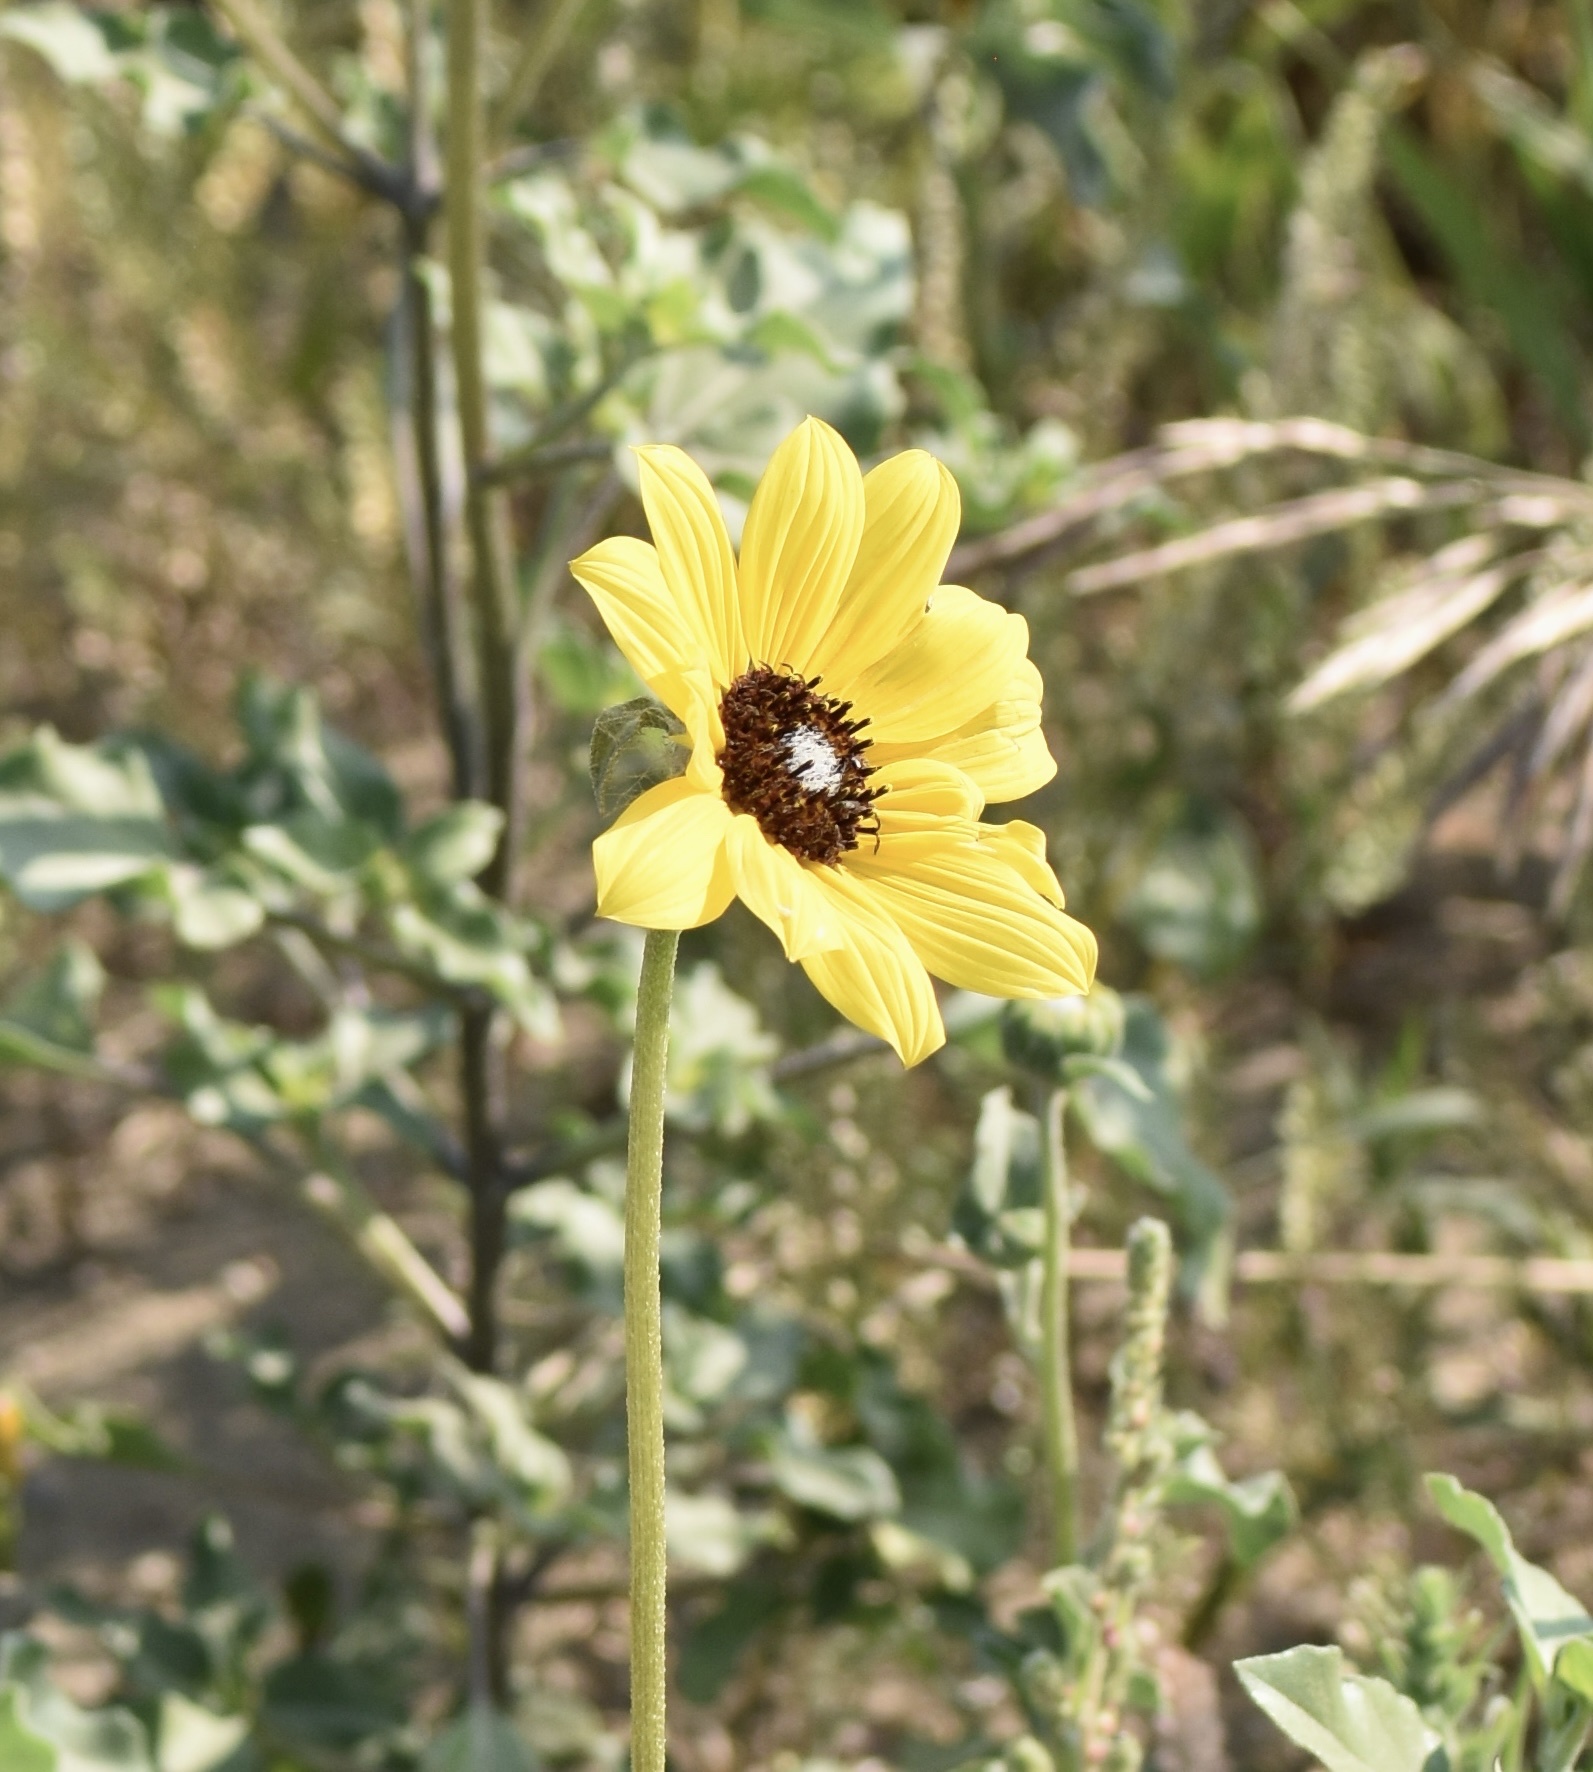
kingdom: Plantae
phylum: Tracheophyta
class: Magnoliopsida
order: Asterales
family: Asteraceae
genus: Helianthus
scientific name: Helianthus petiolaris
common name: Lesser sunflower
